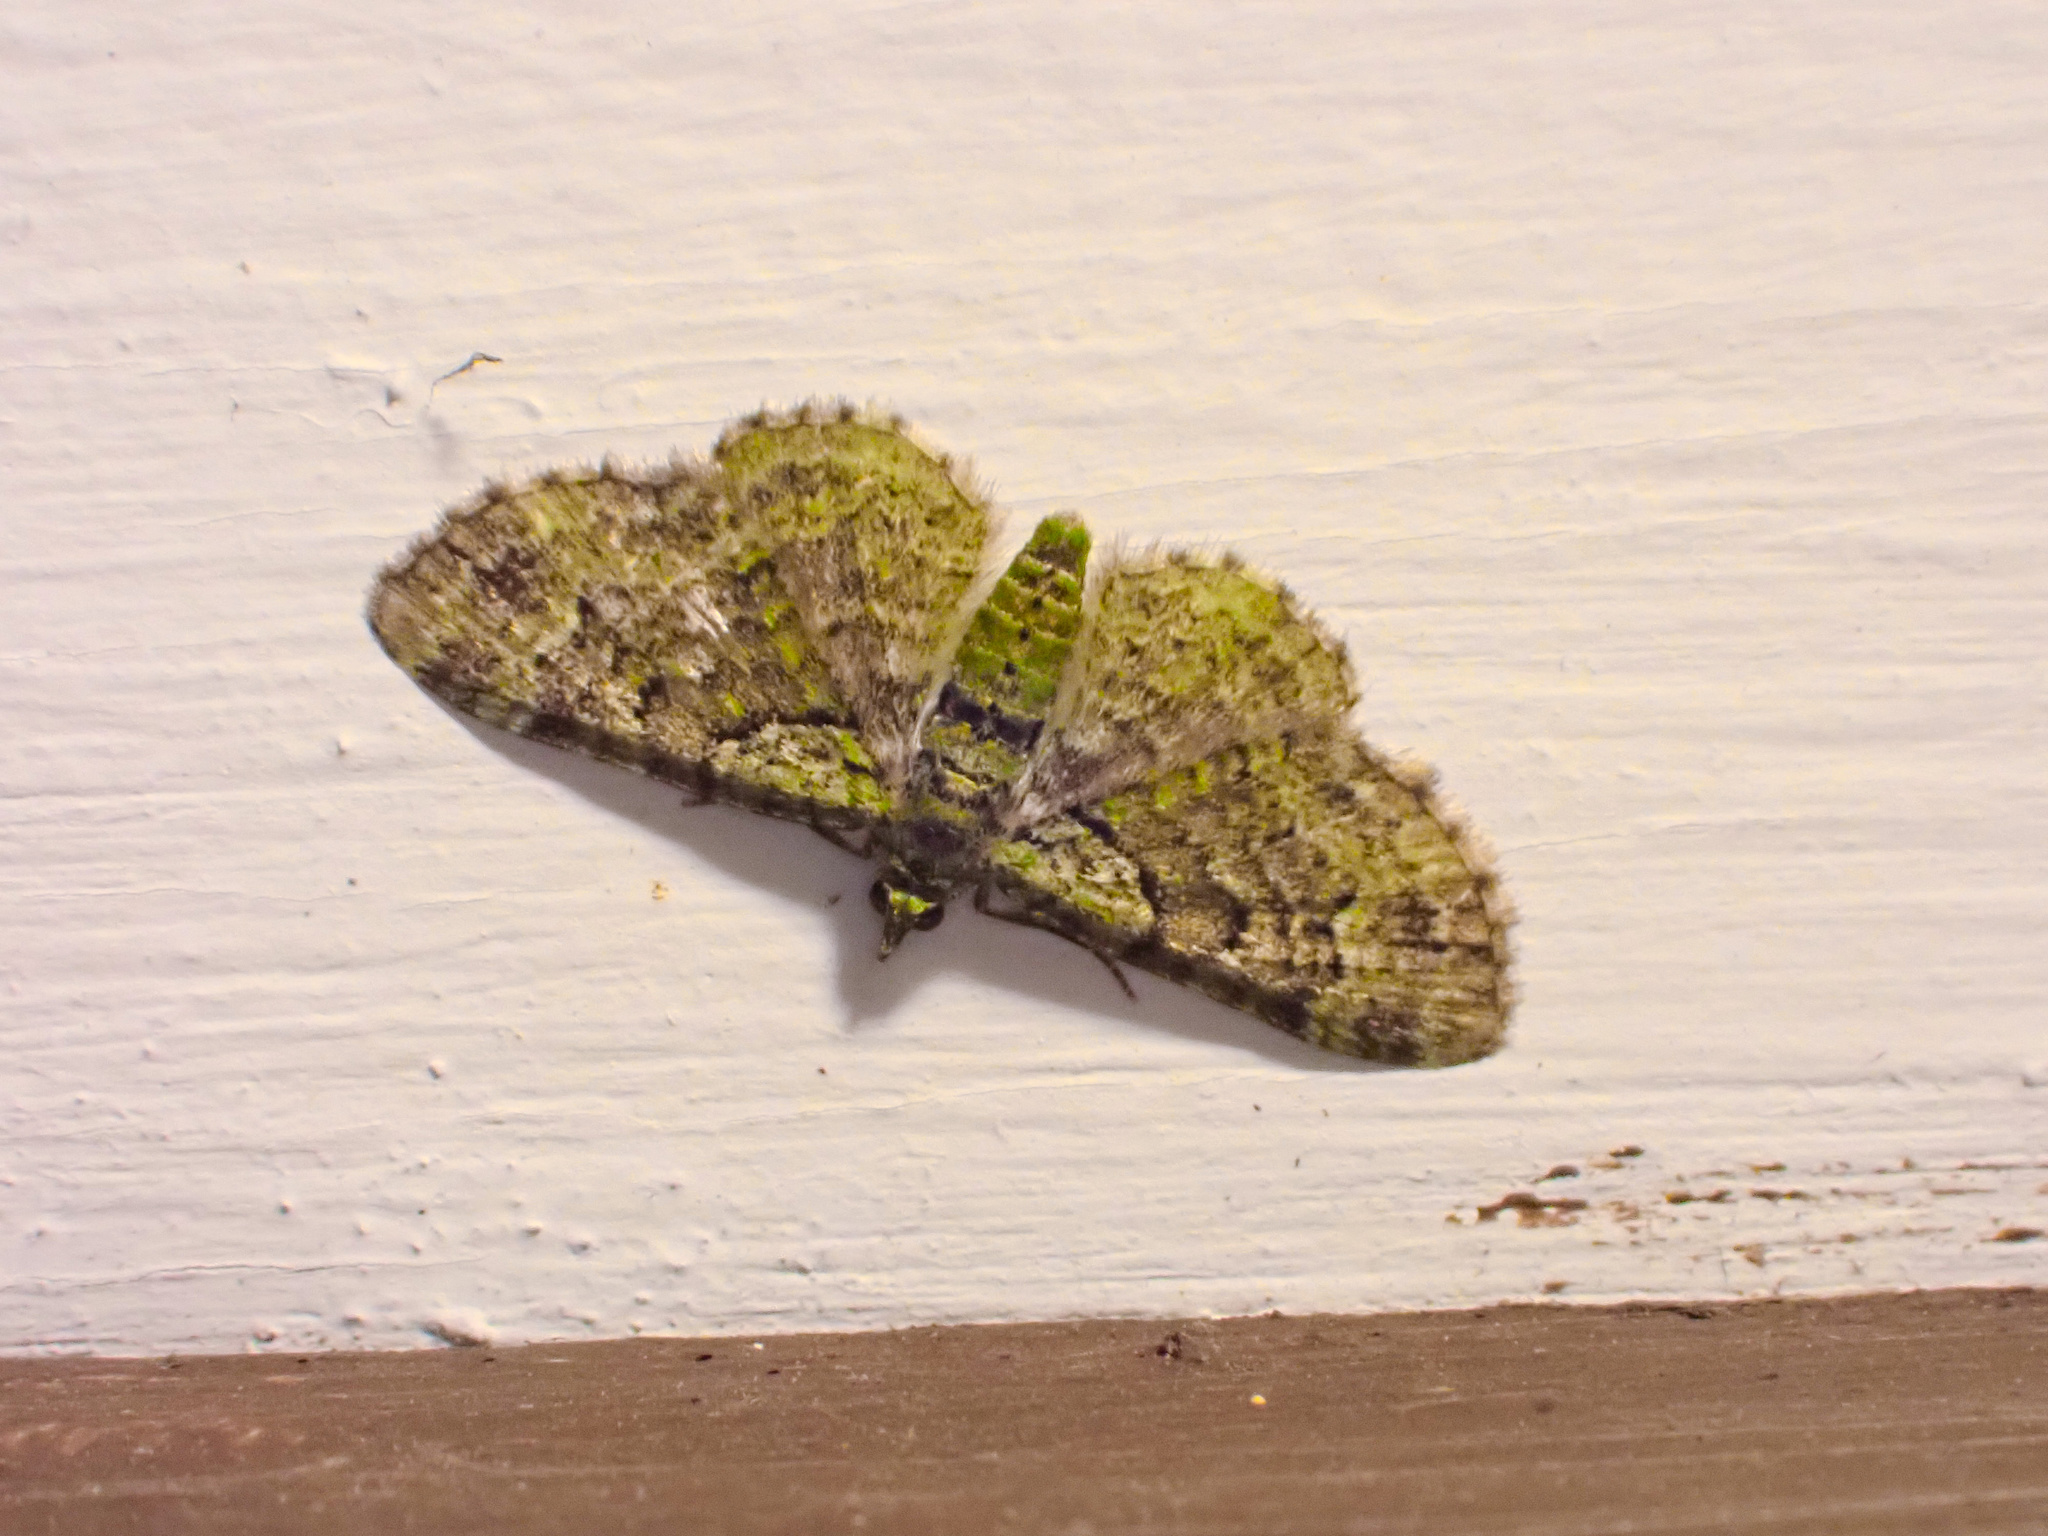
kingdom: Animalia
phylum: Arthropoda
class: Insecta
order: Lepidoptera
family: Geometridae
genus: Pasiphila
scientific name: Pasiphila rectangulata
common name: Green pug
